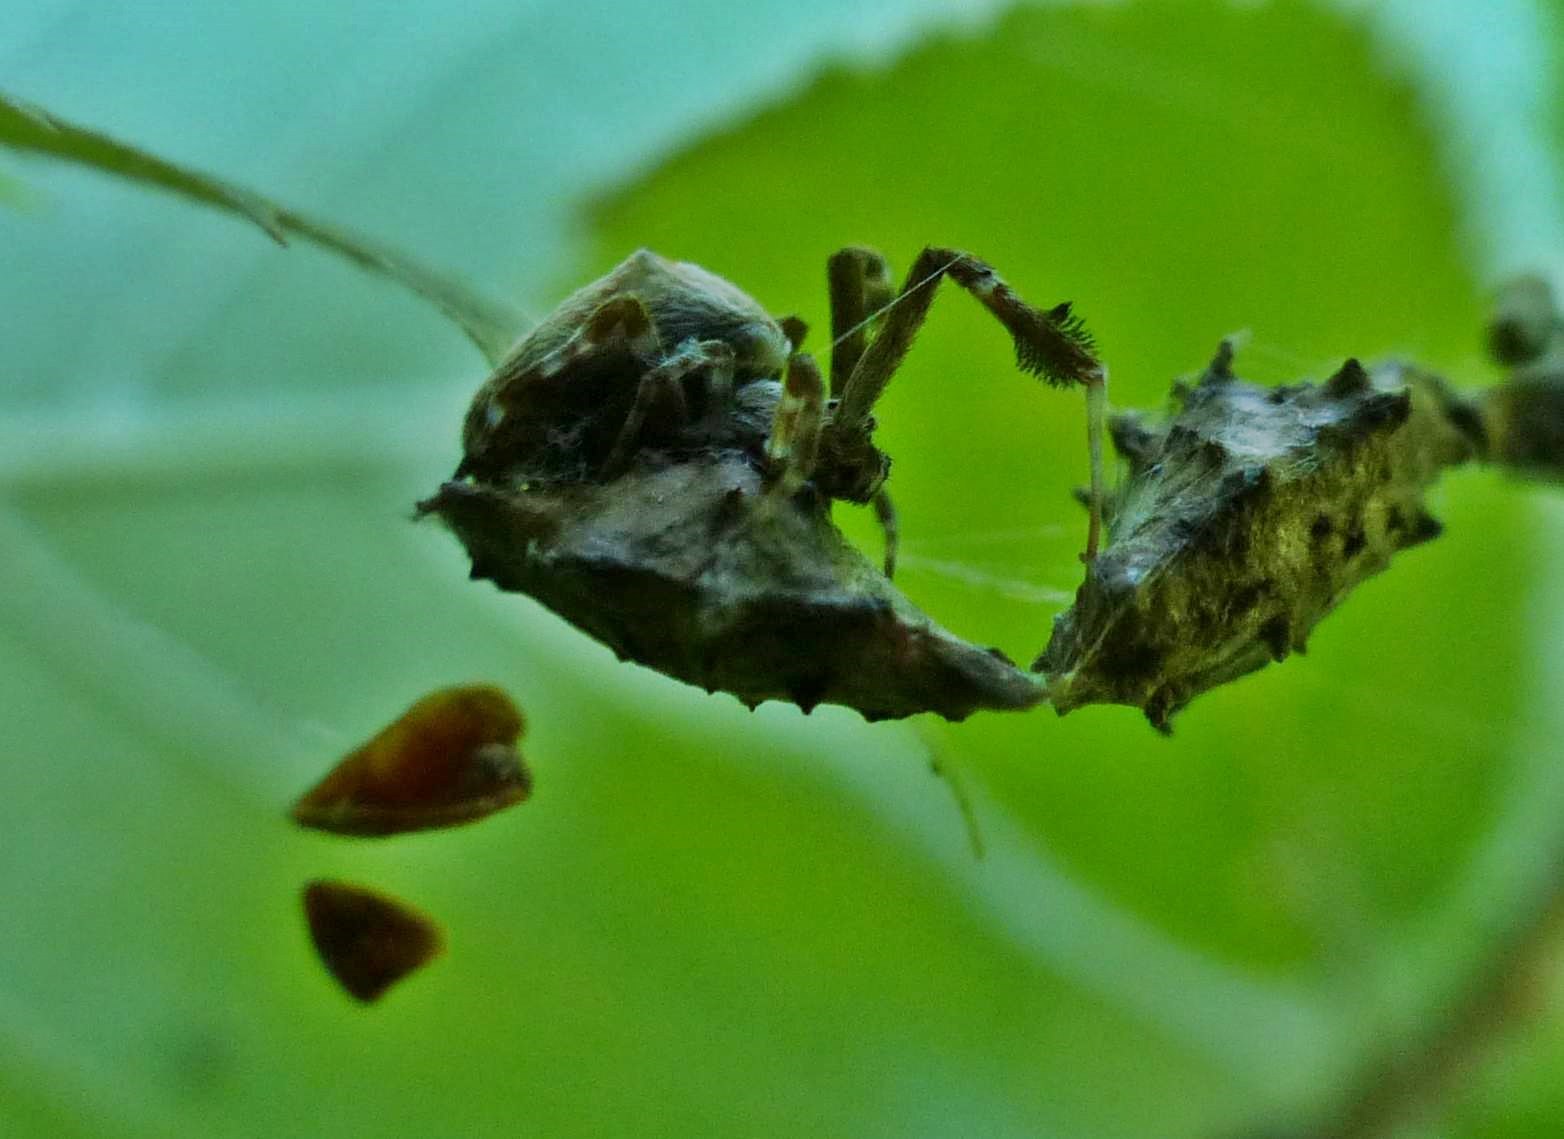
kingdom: Animalia
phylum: Arthropoda
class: Arachnida
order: Araneae
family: Uloboridae
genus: Uloborus
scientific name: Uloborus glomosus
